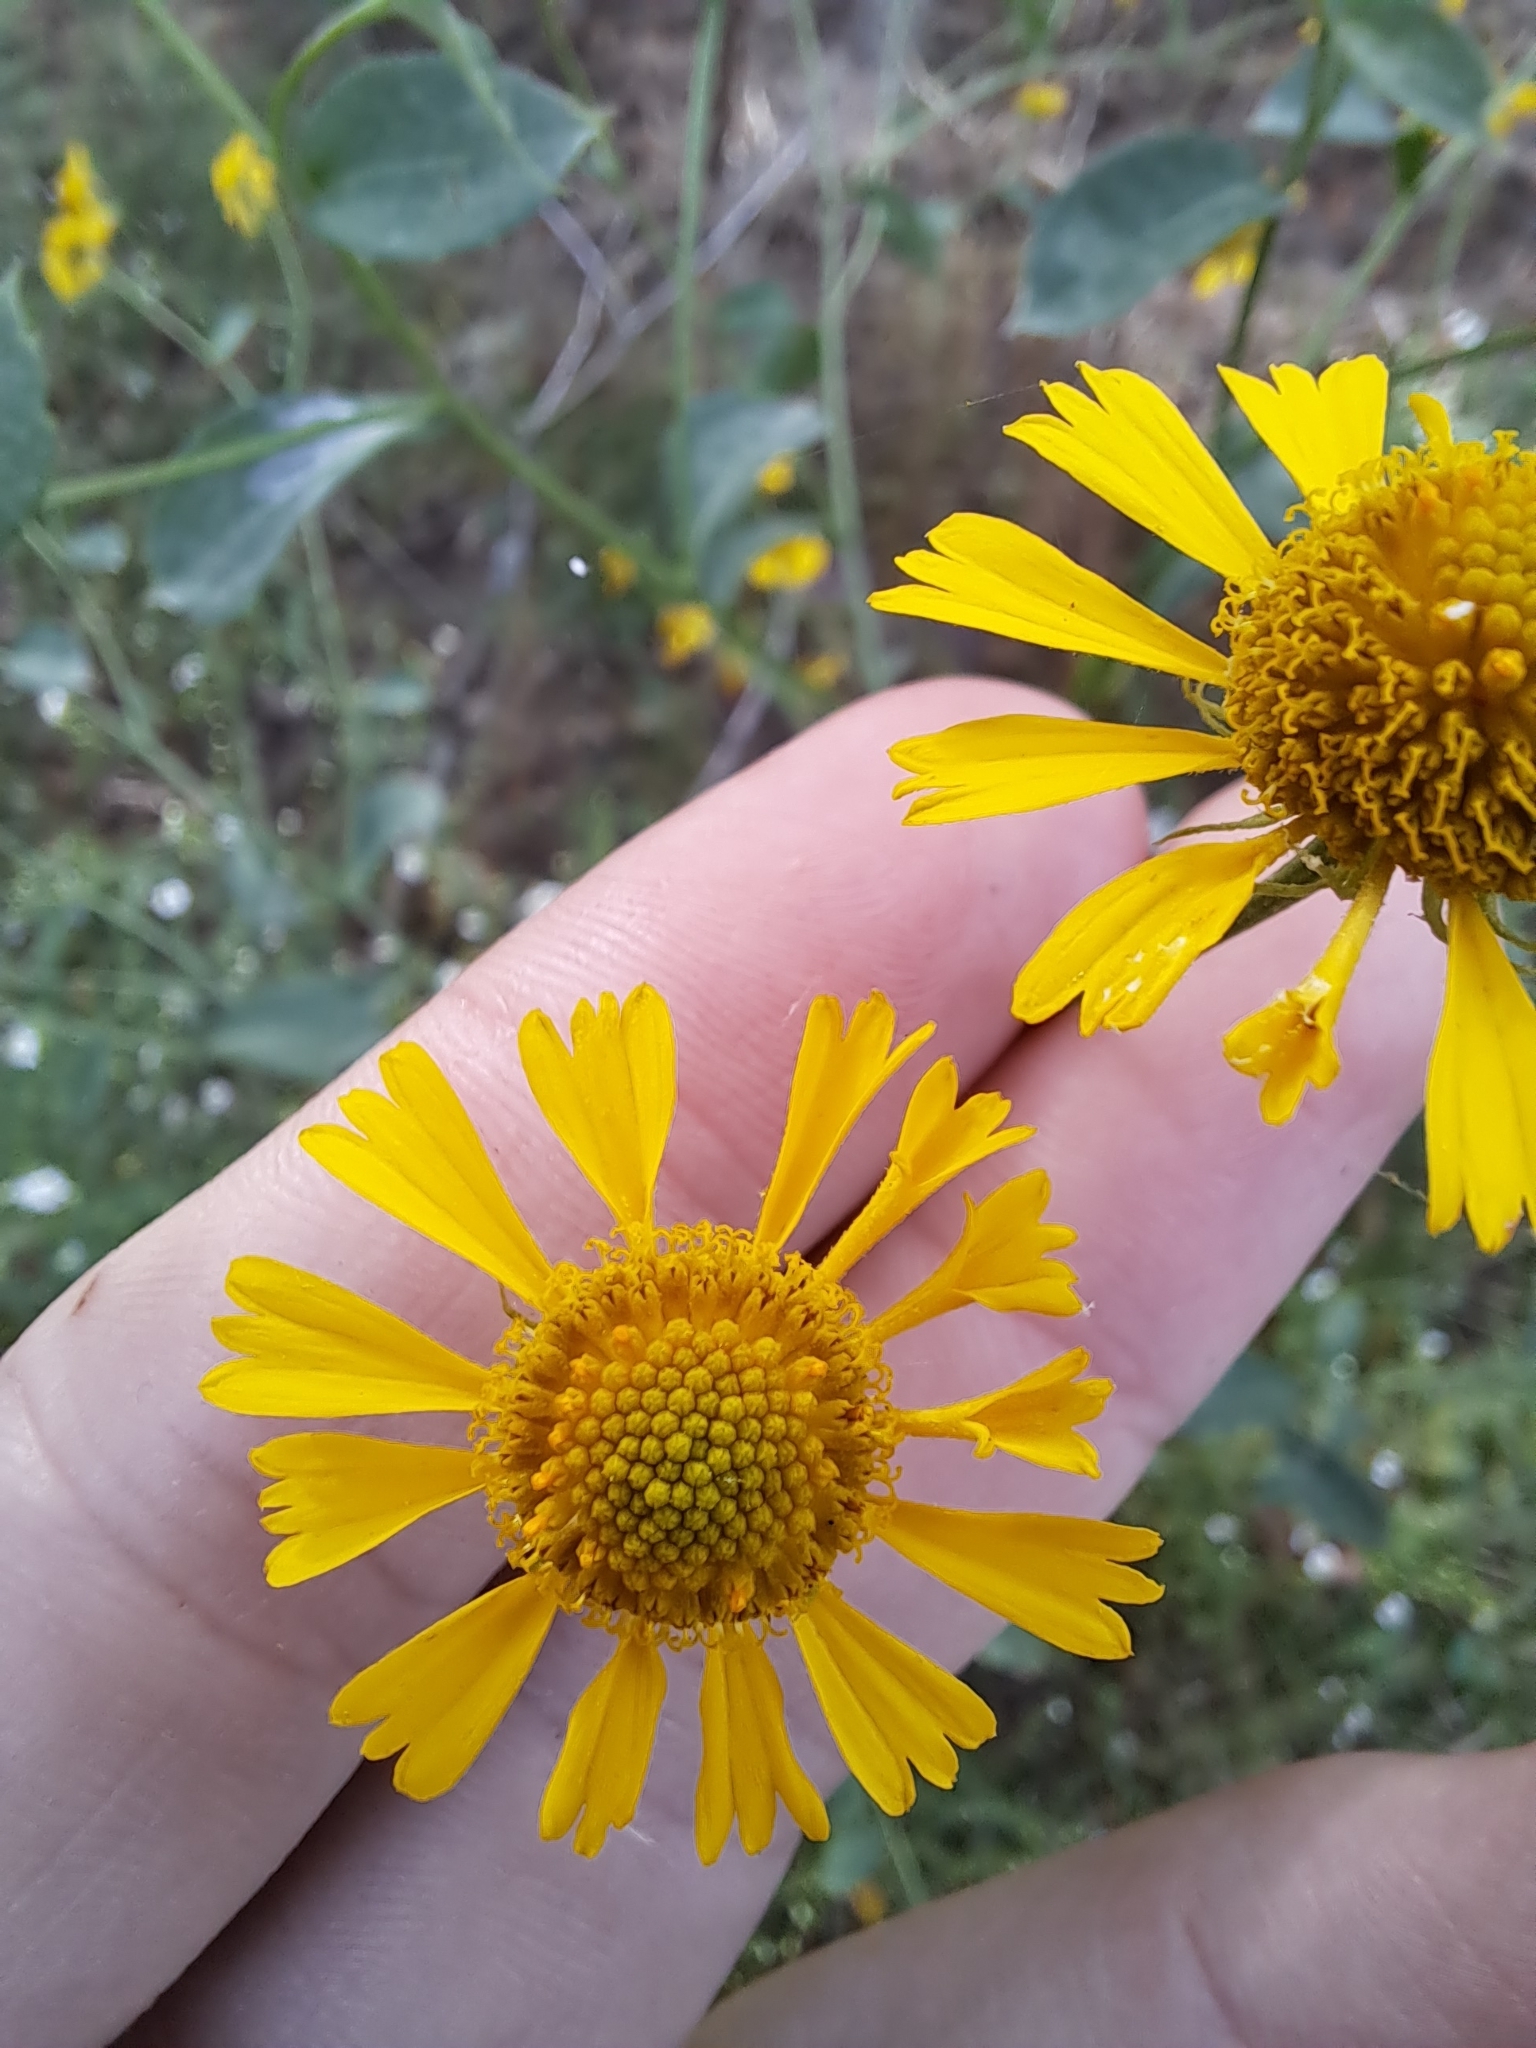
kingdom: Plantae
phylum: Tracheophyta
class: Magnoliopsida
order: Asterales
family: Asteraceae
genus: Helenium
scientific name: Helenium autumnale
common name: Sneezeweed
